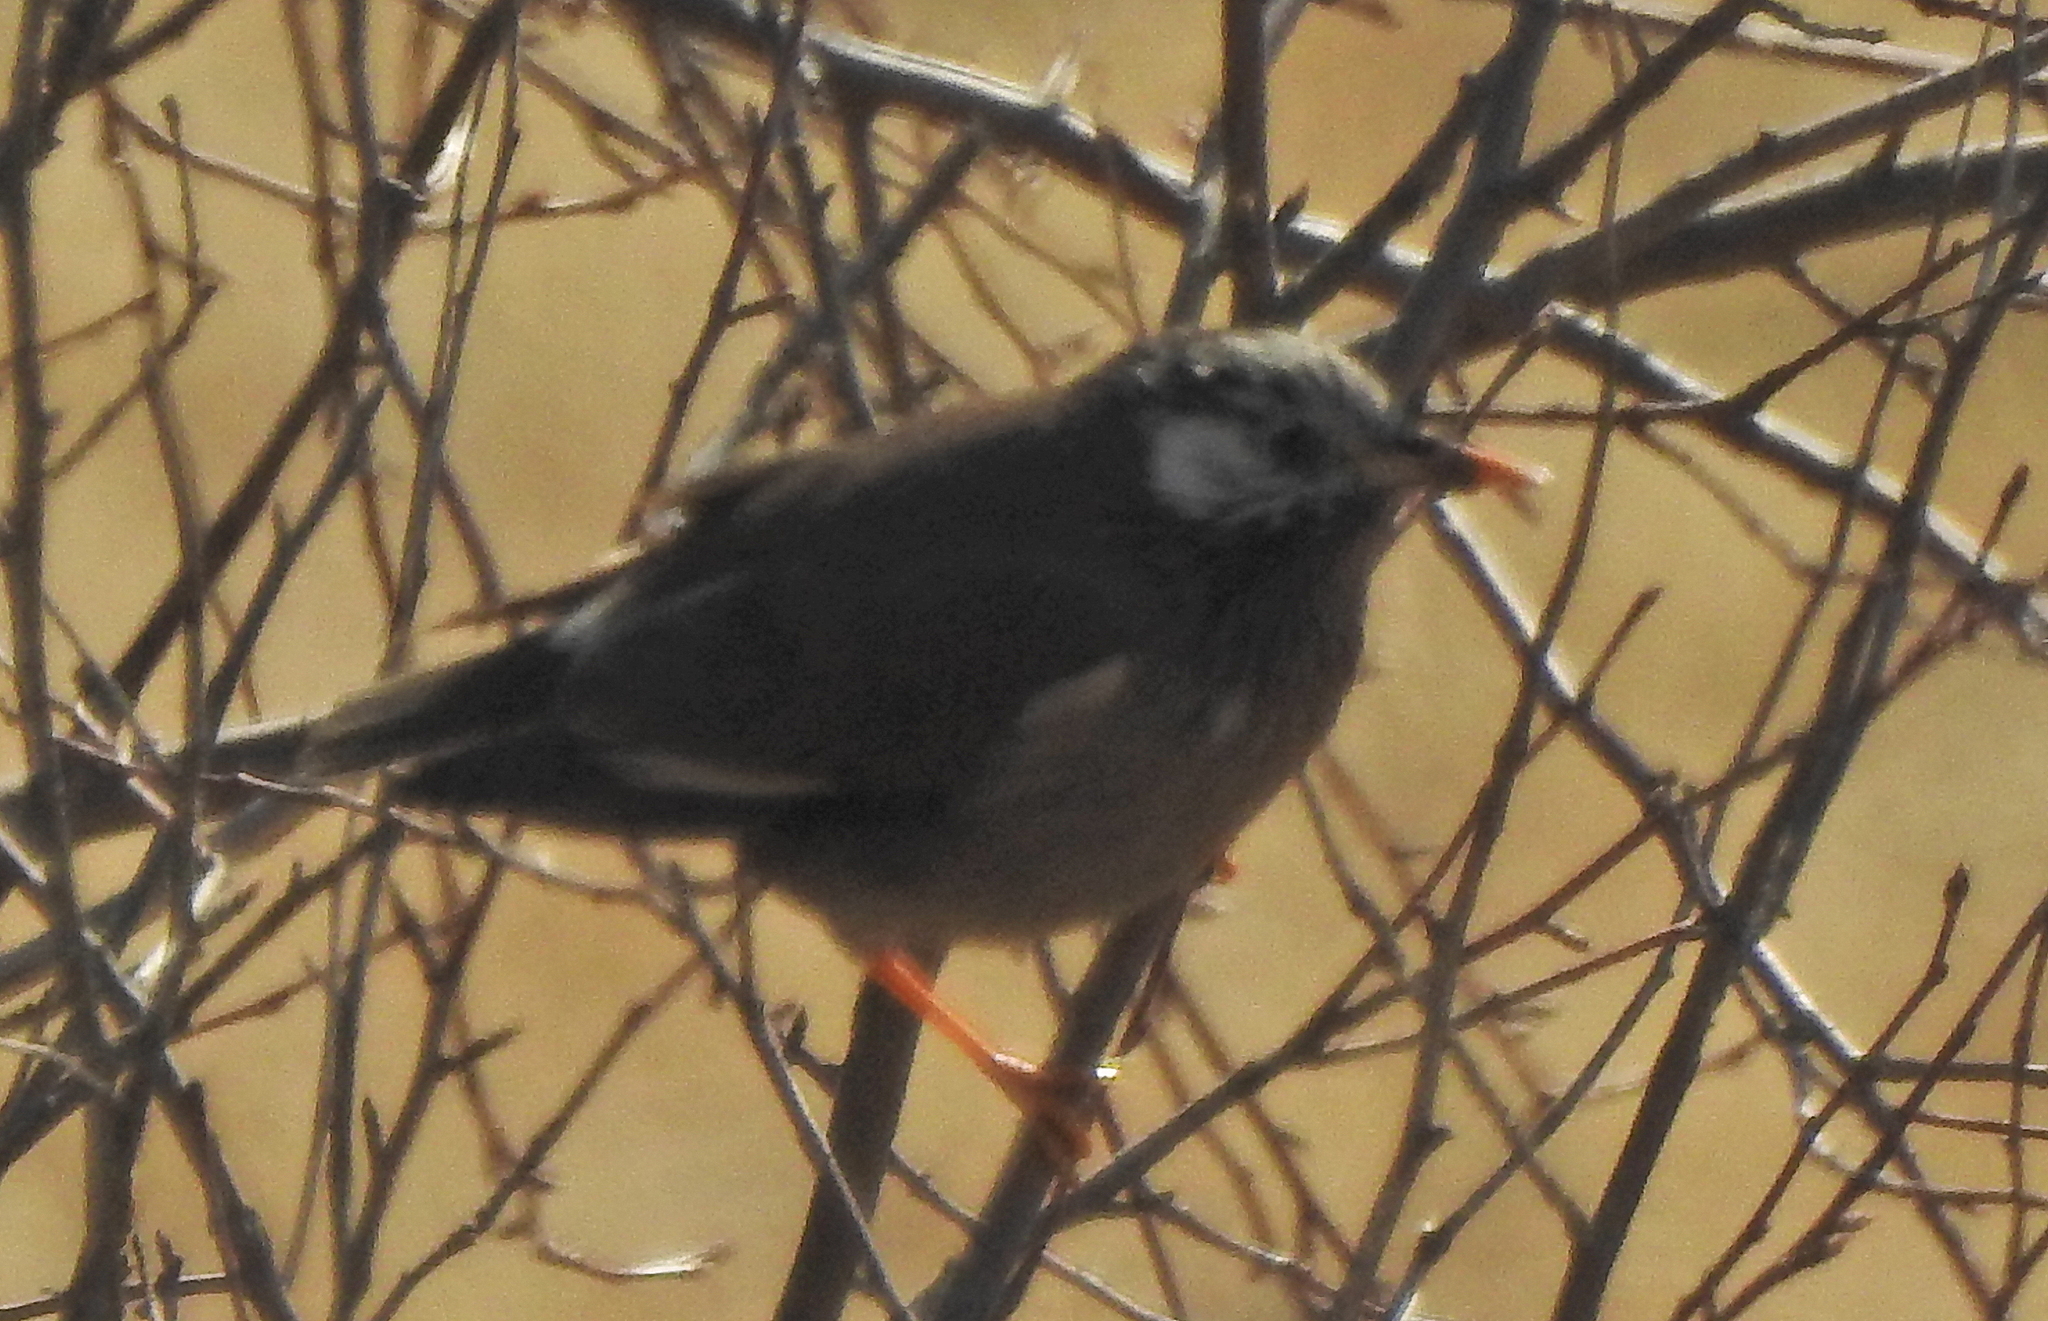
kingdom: Animalia
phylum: Chordata
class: Aves
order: Passeriformes
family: Sturnidae
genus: Spodiopsar
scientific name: Spodiopsar cineraceus
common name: White-cheeked starling
